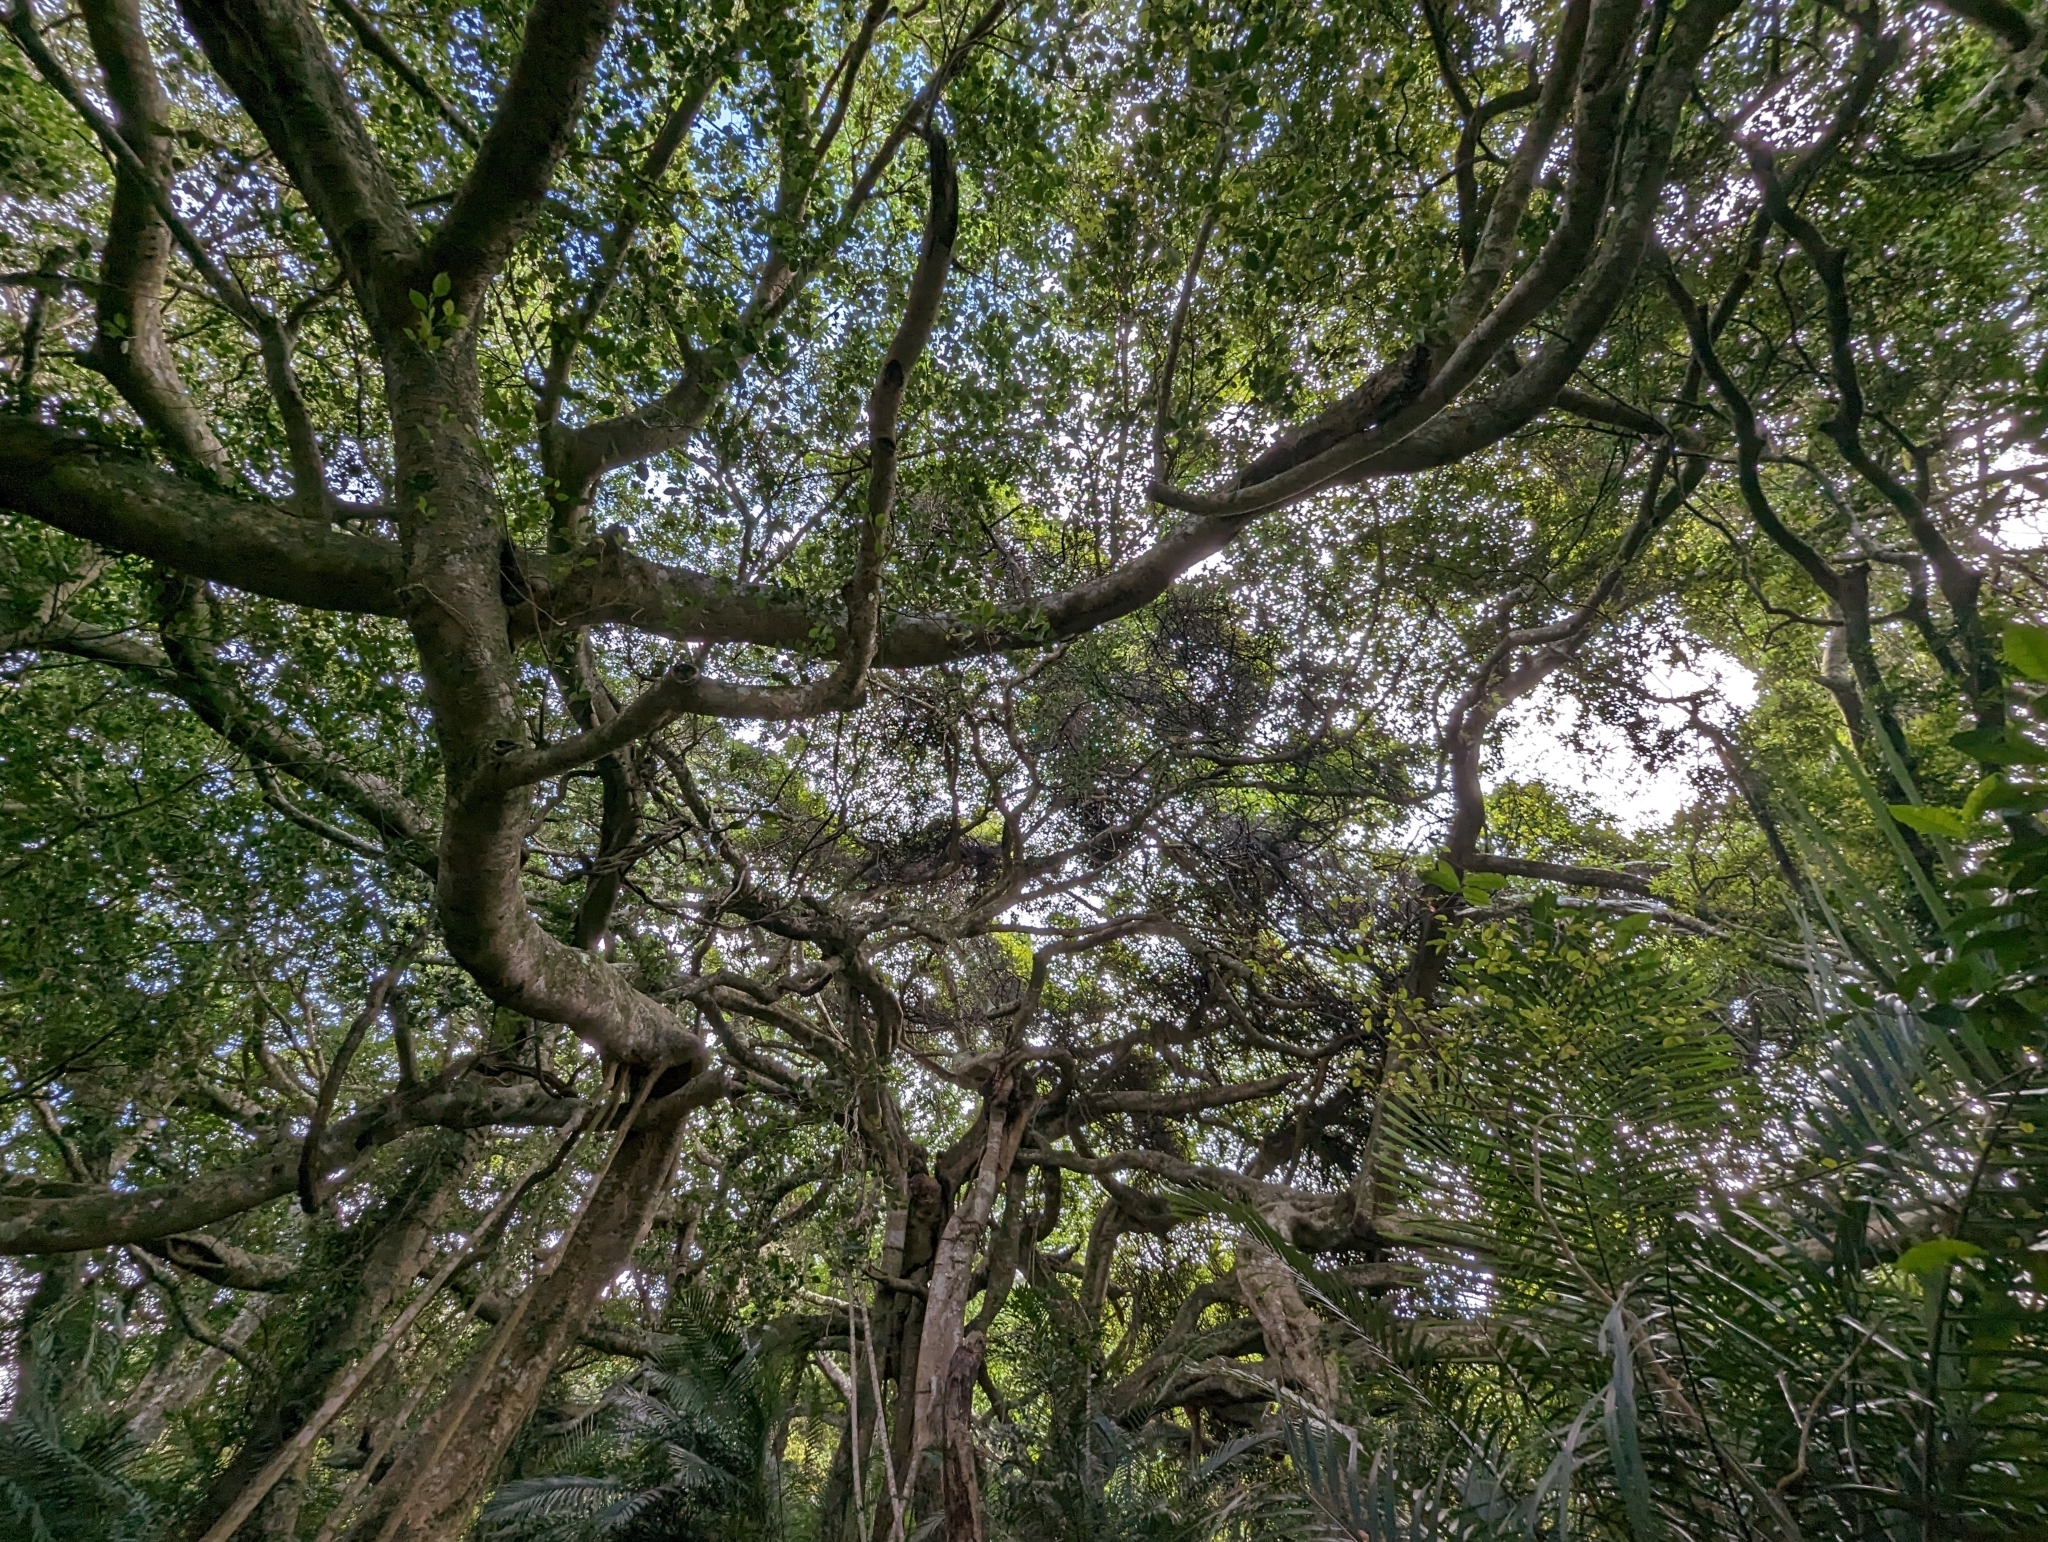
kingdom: Plantae
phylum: Tracheophyta
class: Magnoliopsida
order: Rosales
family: Moraceae
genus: Ficus
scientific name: Ficus benjamina
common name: Weeping fig
